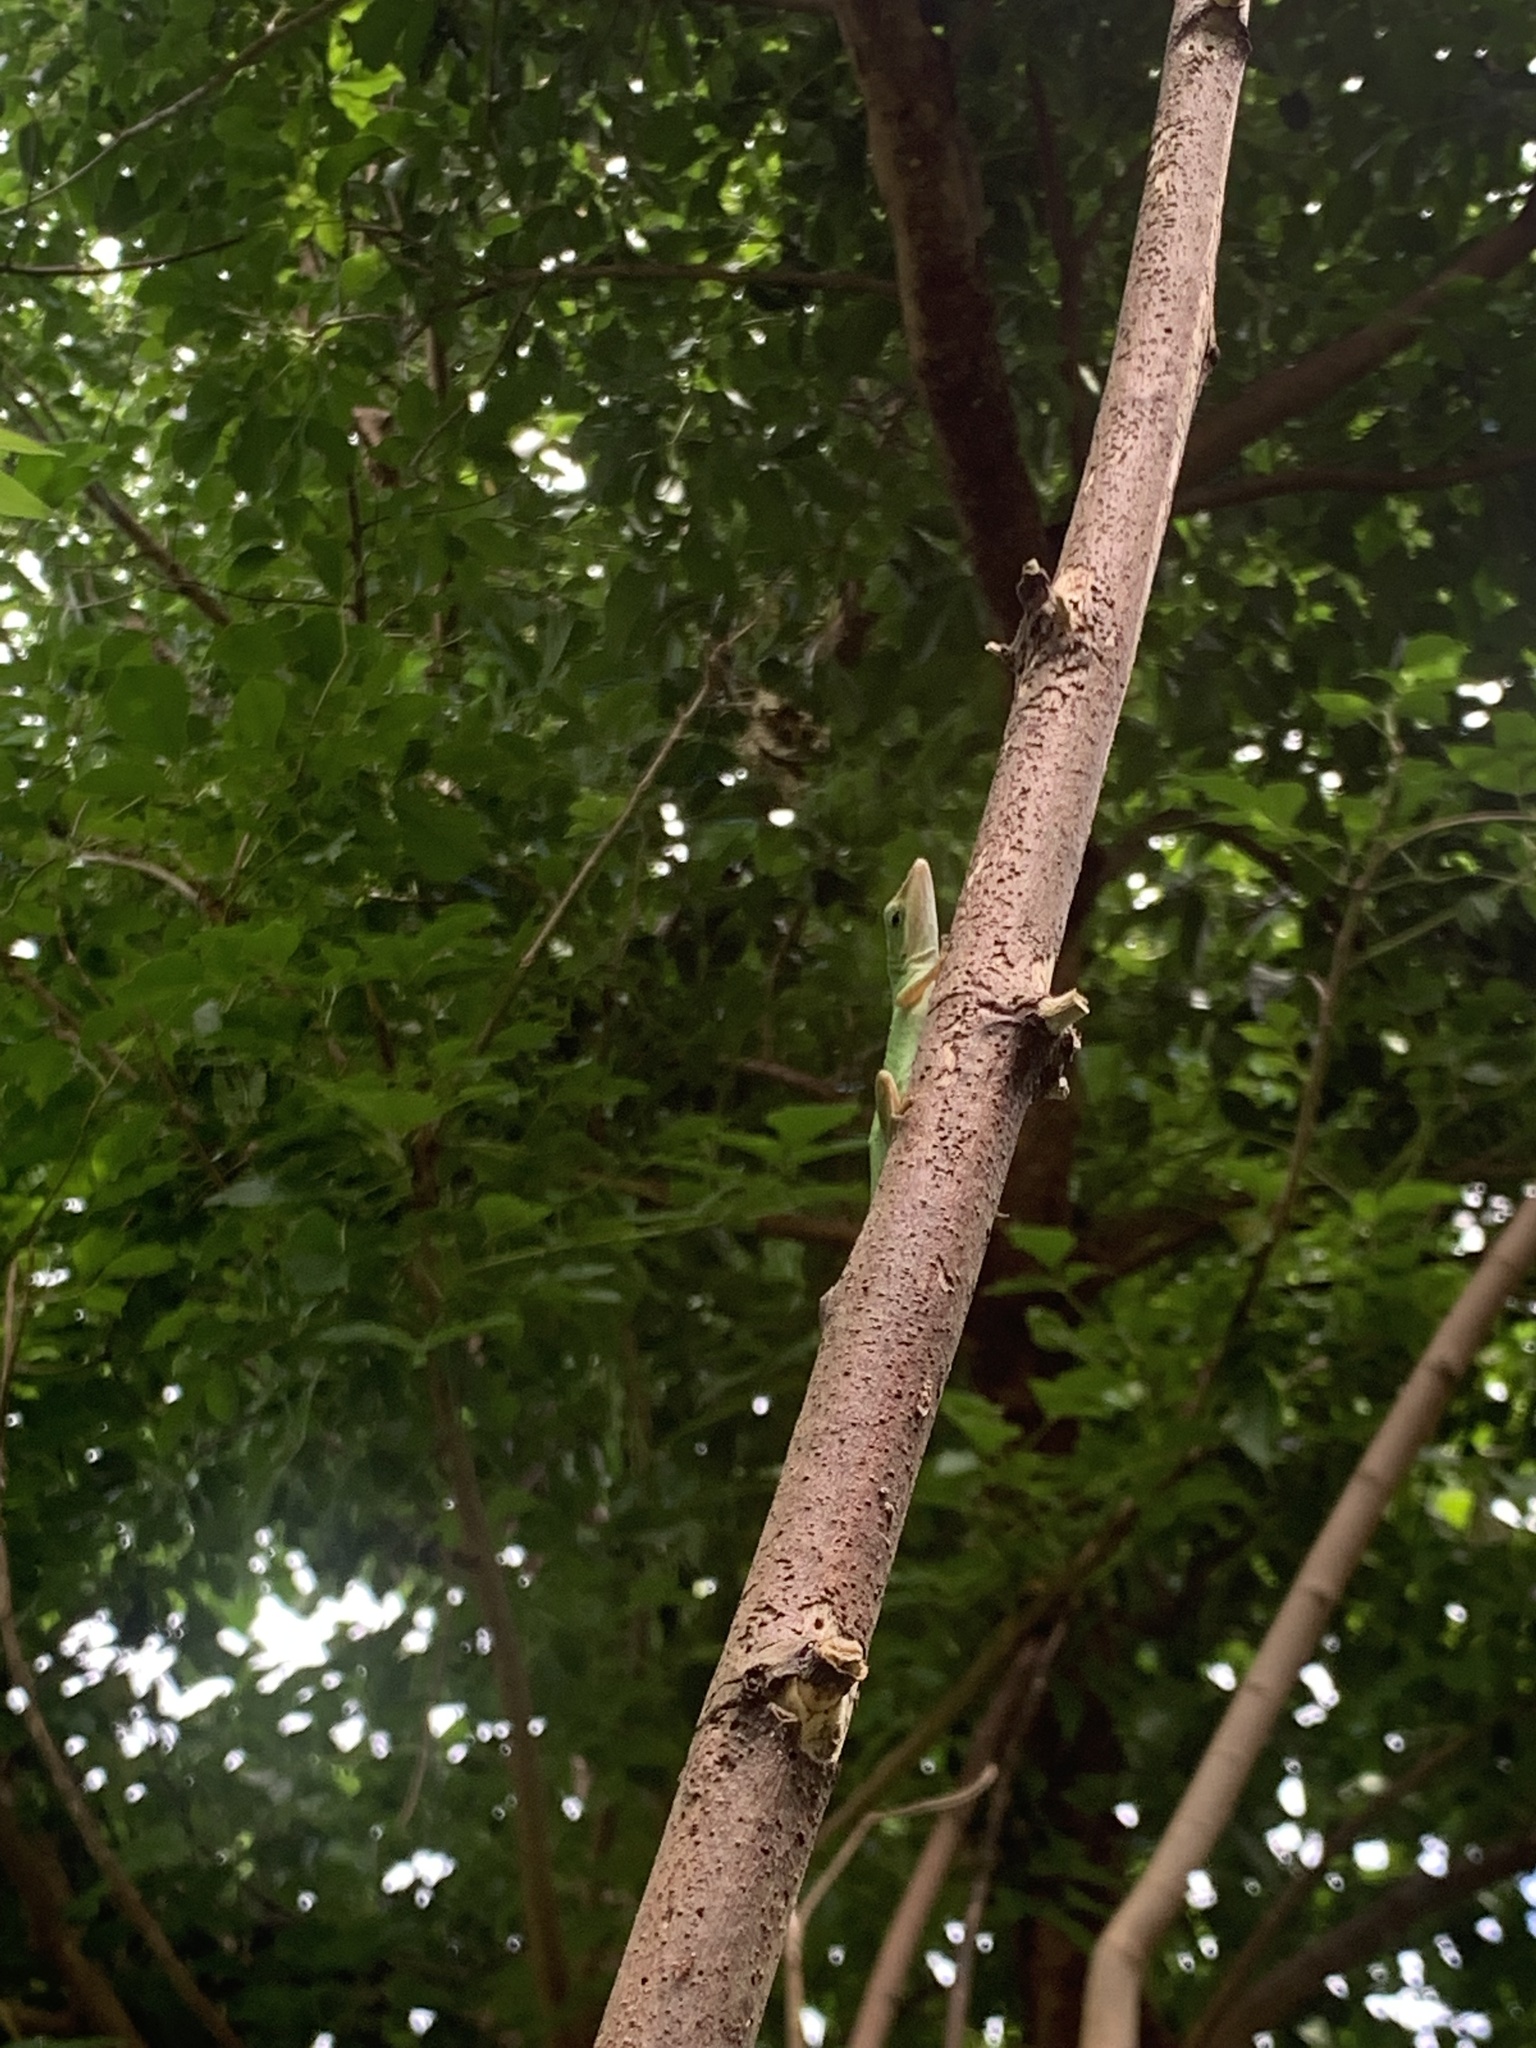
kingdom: Animalia
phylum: Chordata
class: Squamata
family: Dactyloidae
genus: Anolis
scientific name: Anolis carolinensis
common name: Green anole
